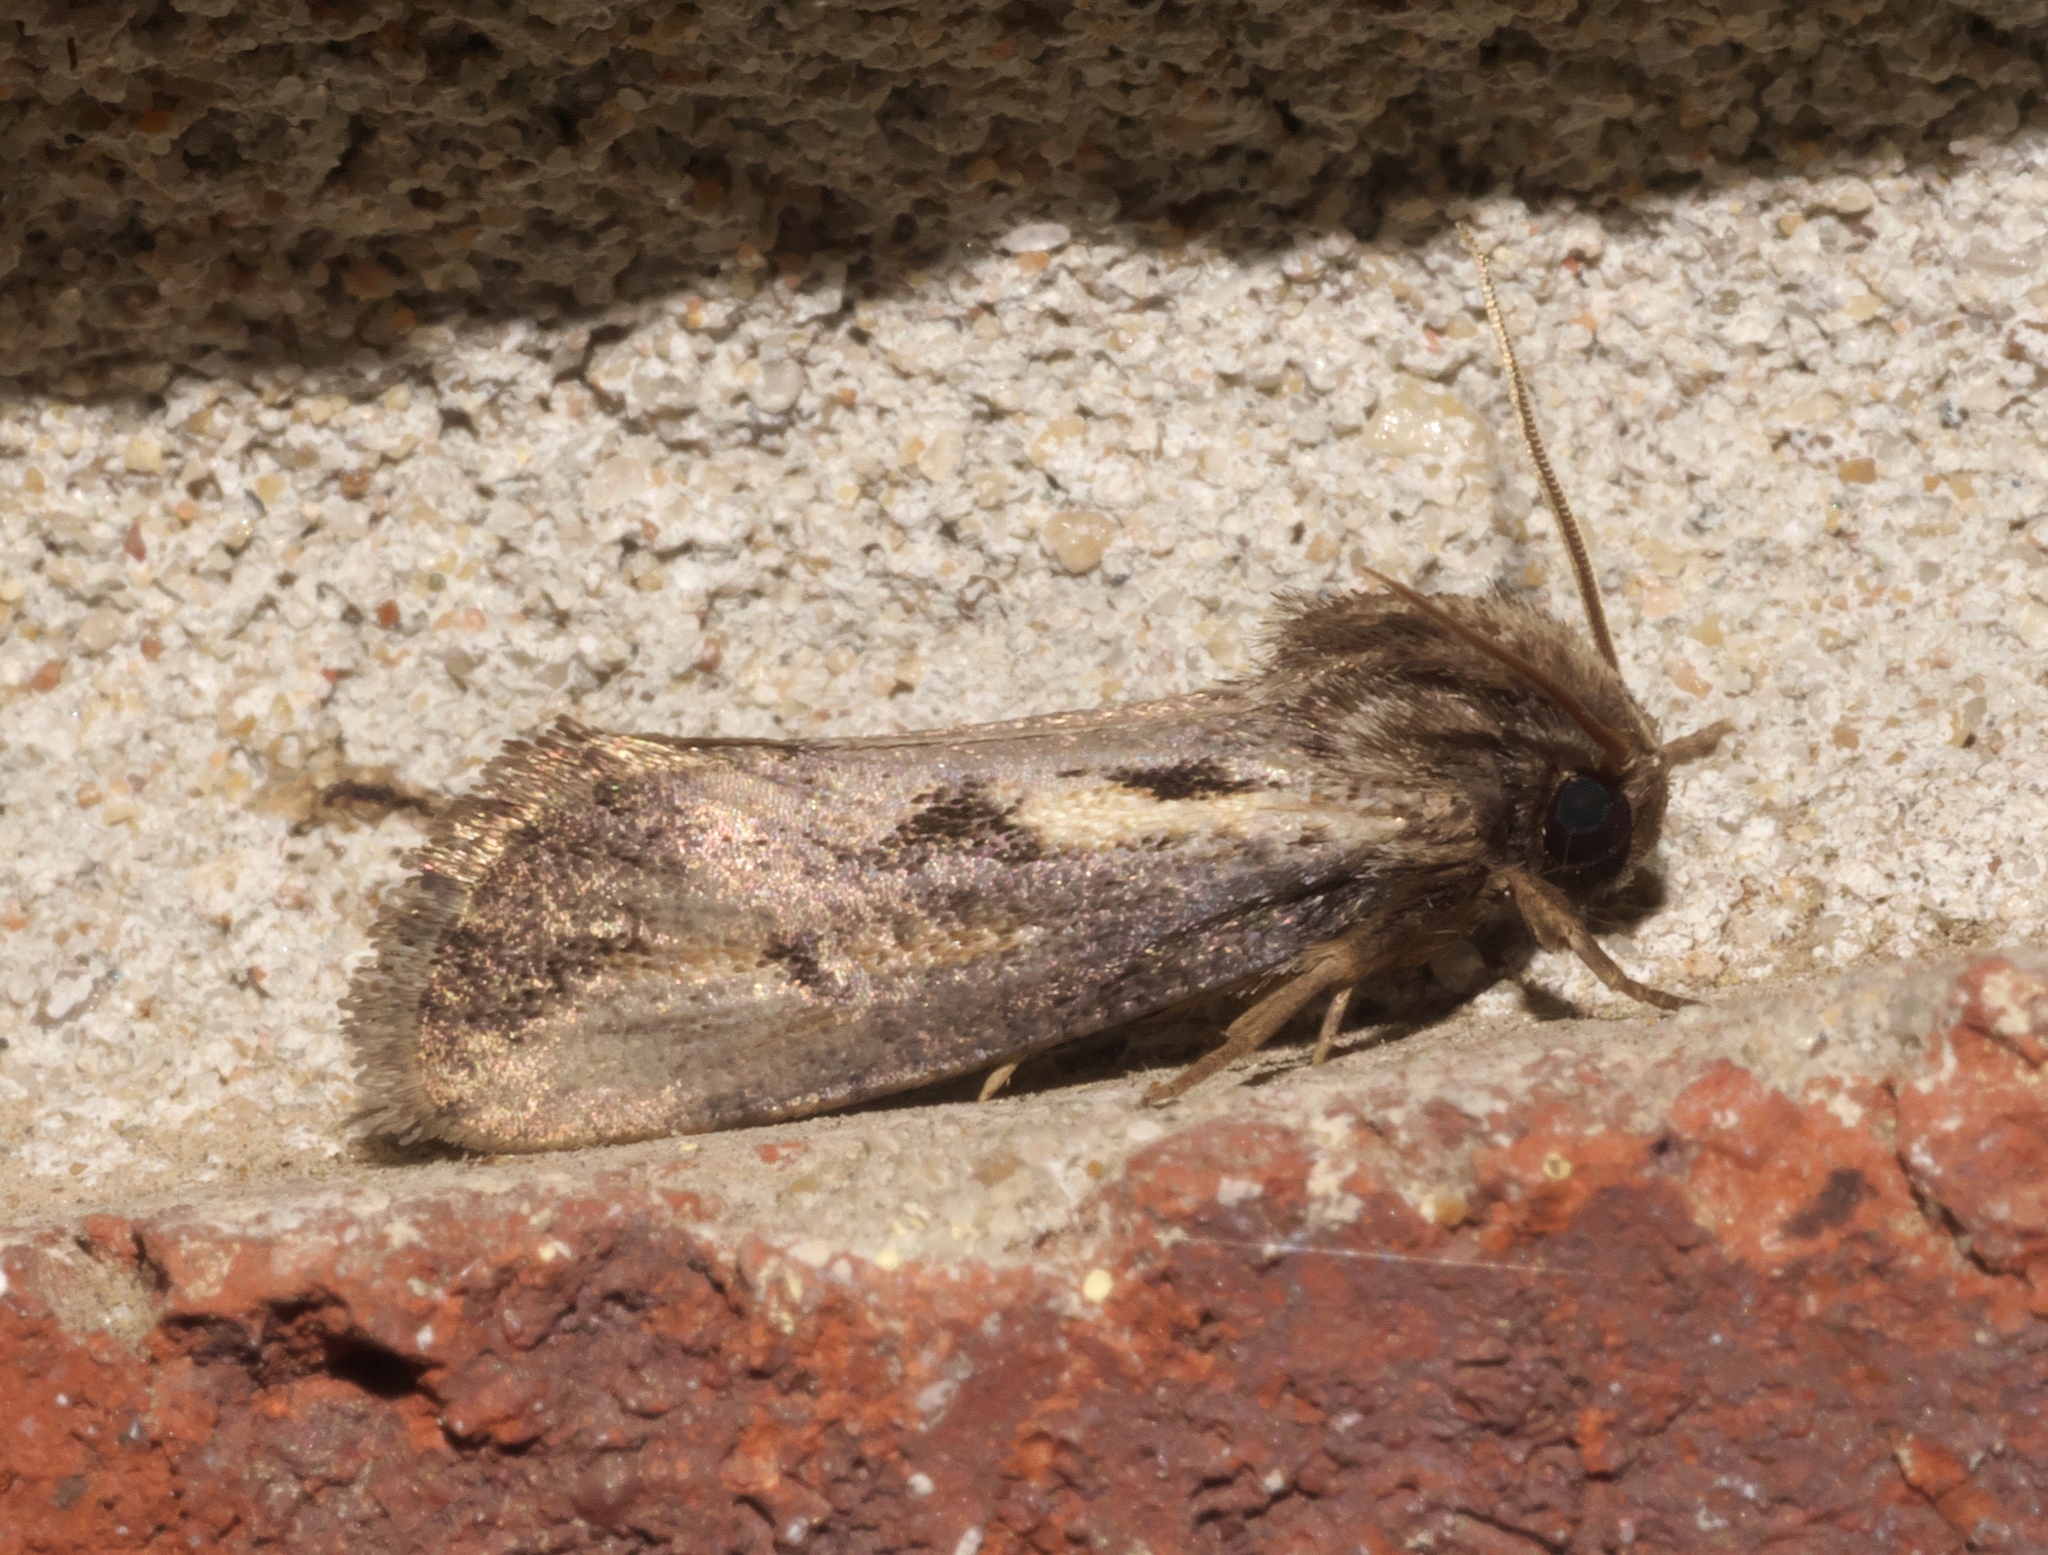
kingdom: Animalia
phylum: Arthropoda
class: Insecta
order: Lepidoptera
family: Tineidae
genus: Acrolophus
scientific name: Acrolophus popeanella
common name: Clemens' grass tubeworm moth
